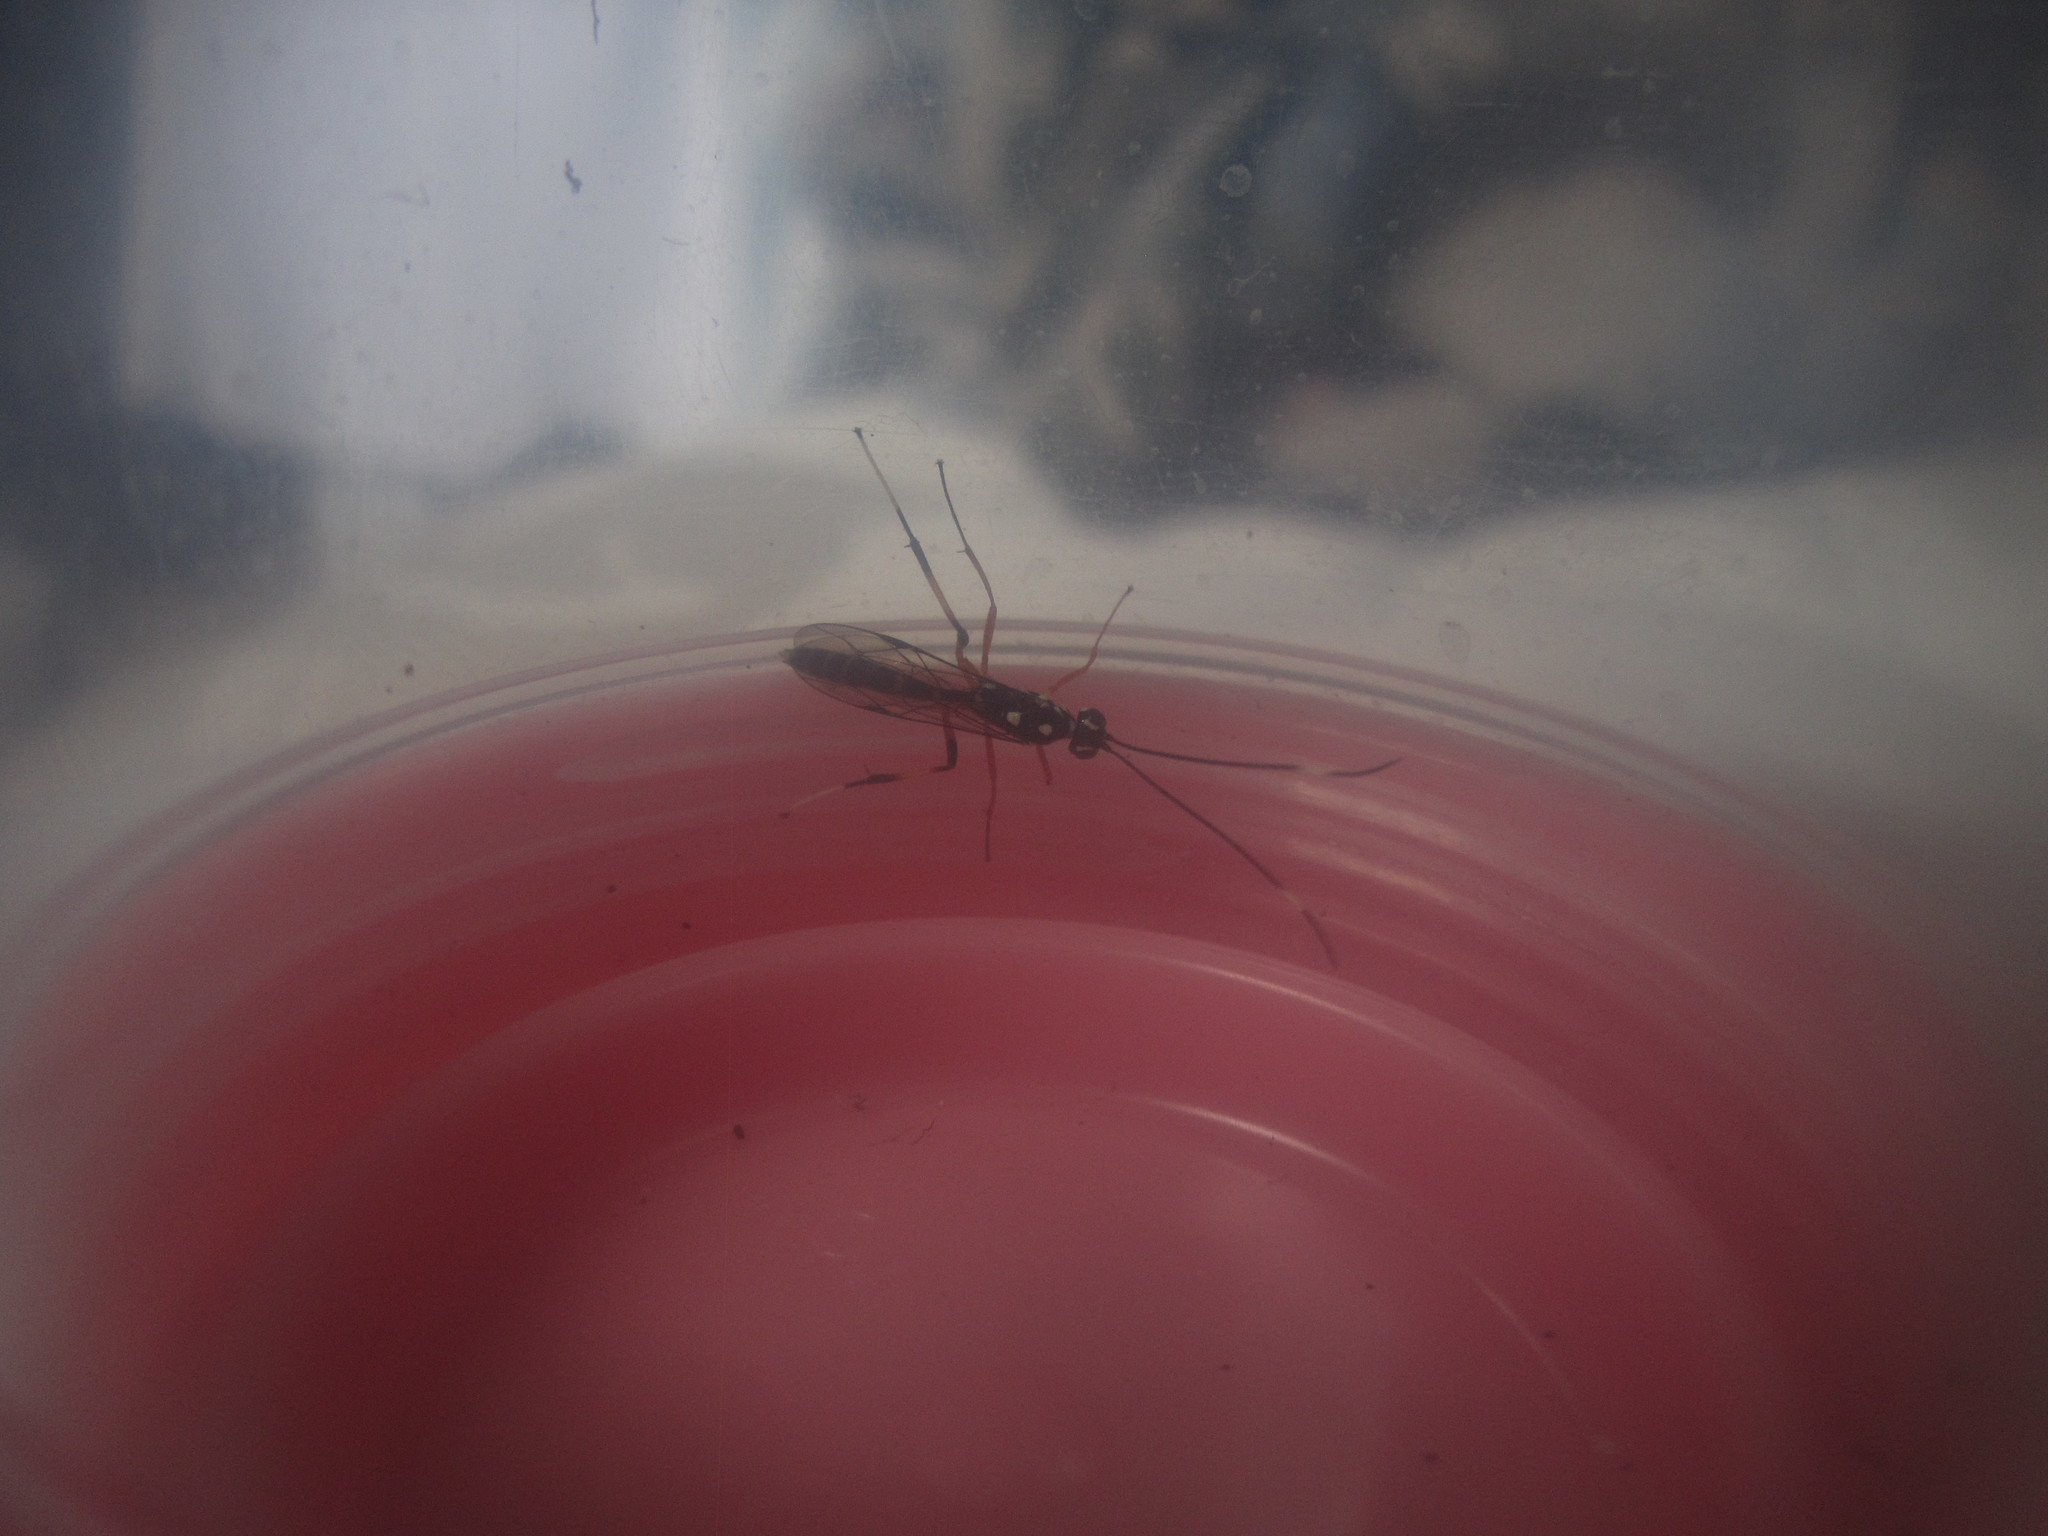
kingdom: Animalia
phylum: Arthropoda
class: Insecta
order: Hymenoptera
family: Ichneumonidae
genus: Xanthocryptus
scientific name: Xanthocryptus novozealandicus
